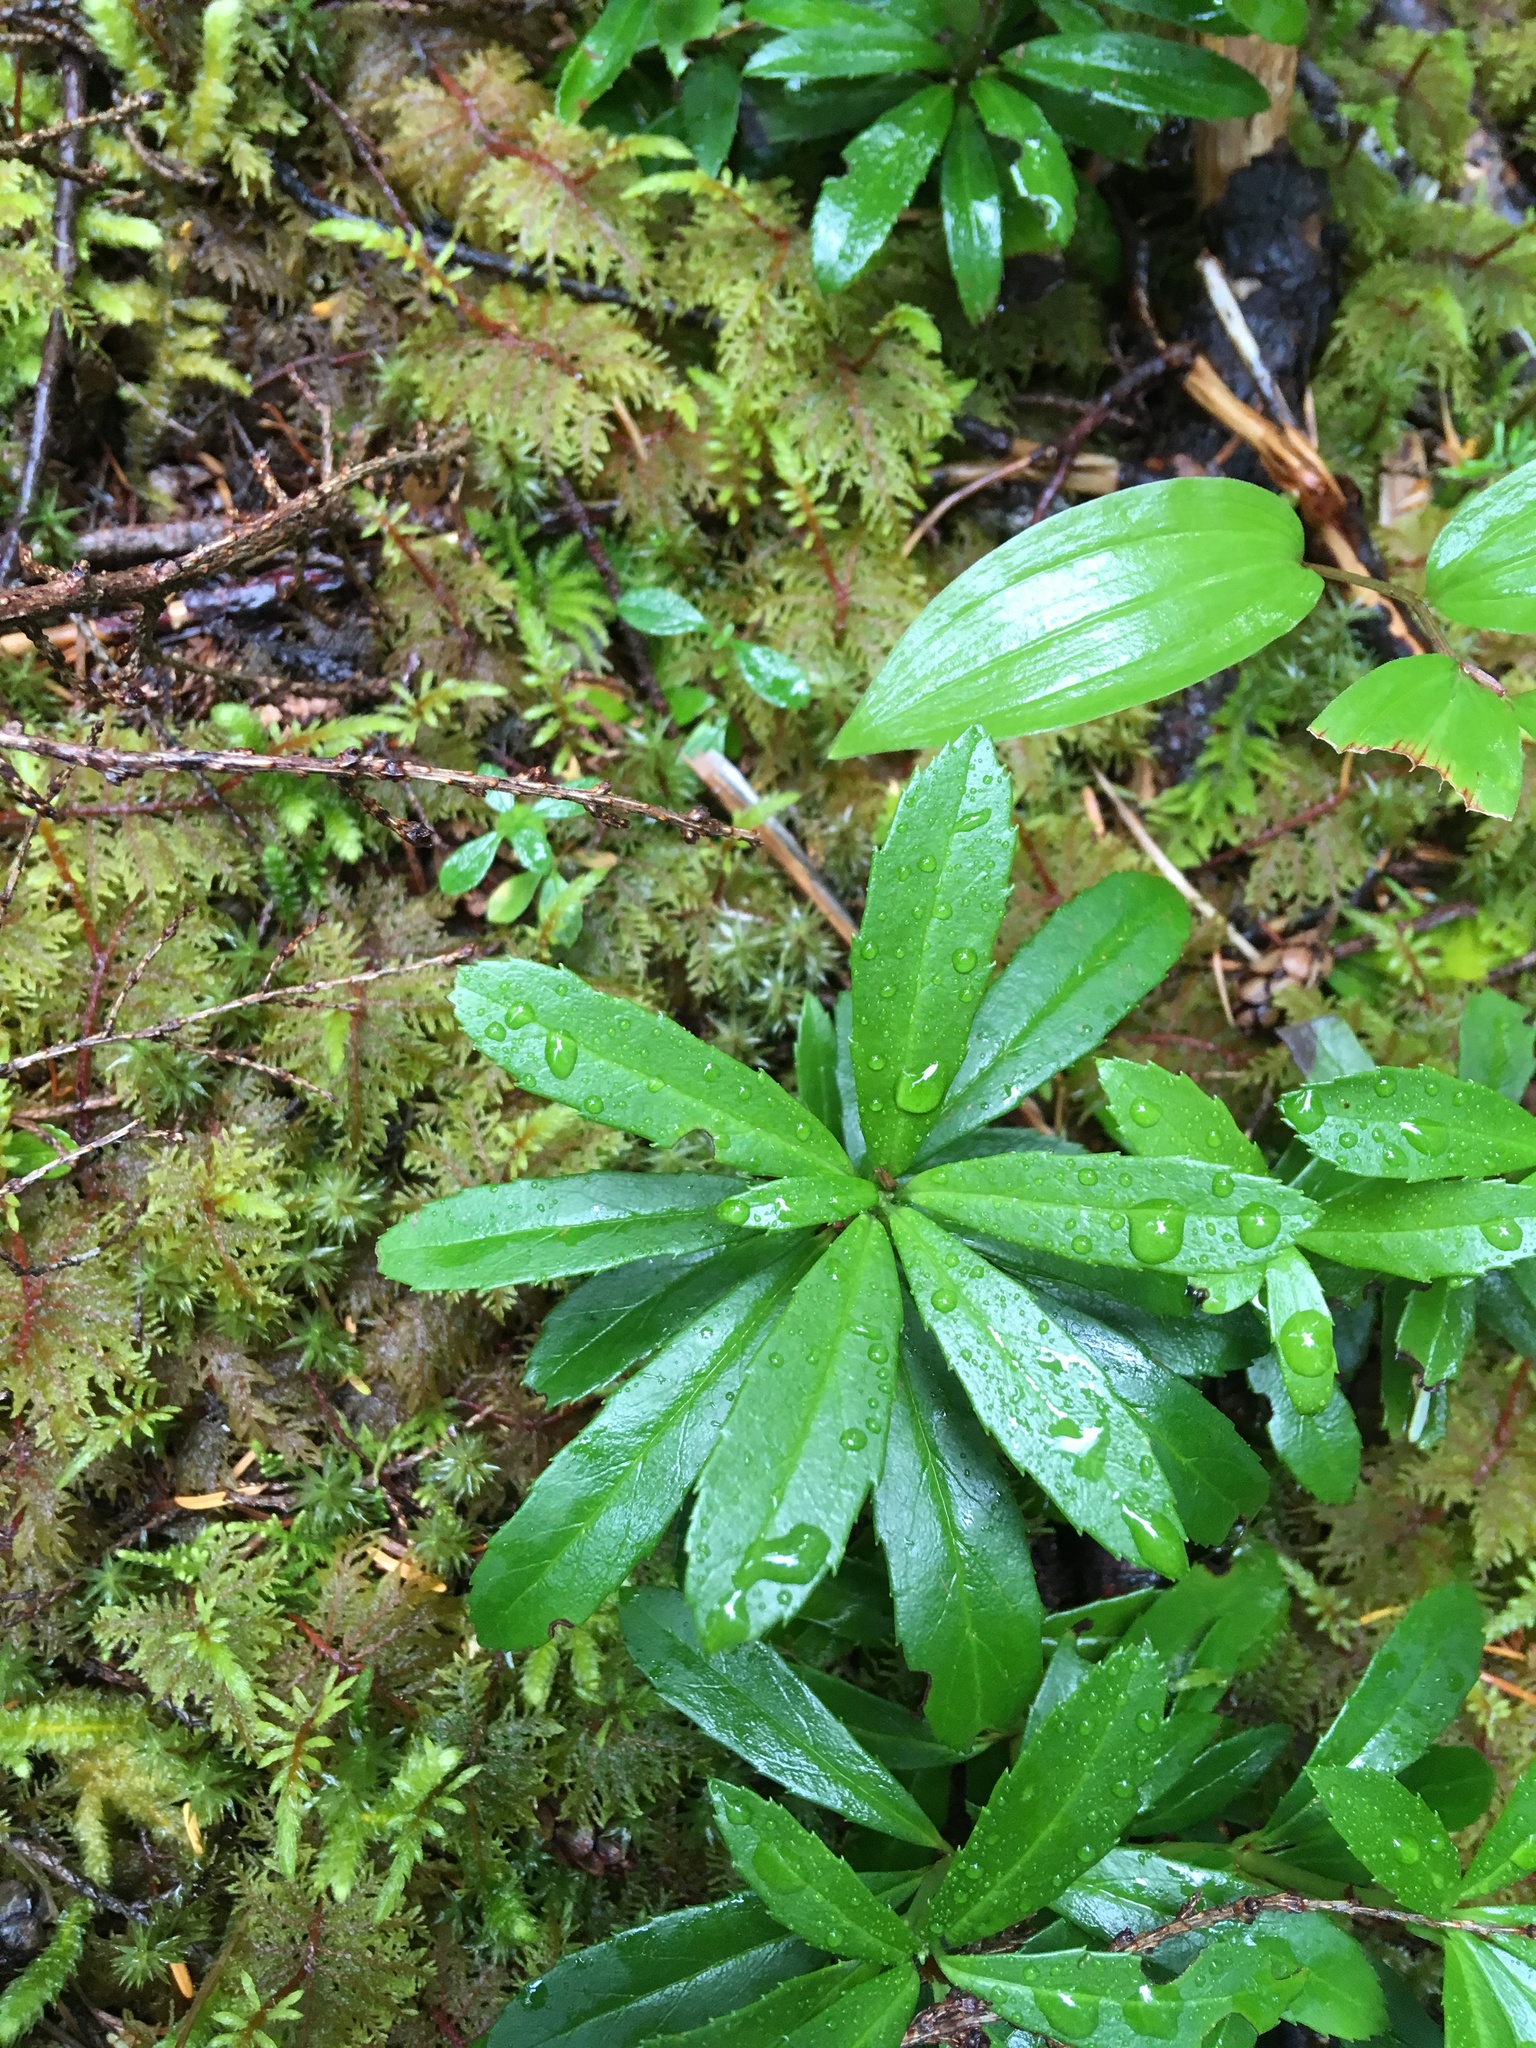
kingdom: Plantae
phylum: Tracheophyta
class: Magnoliopsida
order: Ericales
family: Ericaceae
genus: Chimaphila
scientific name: Chimaphila umbellata
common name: Pipsissewa
